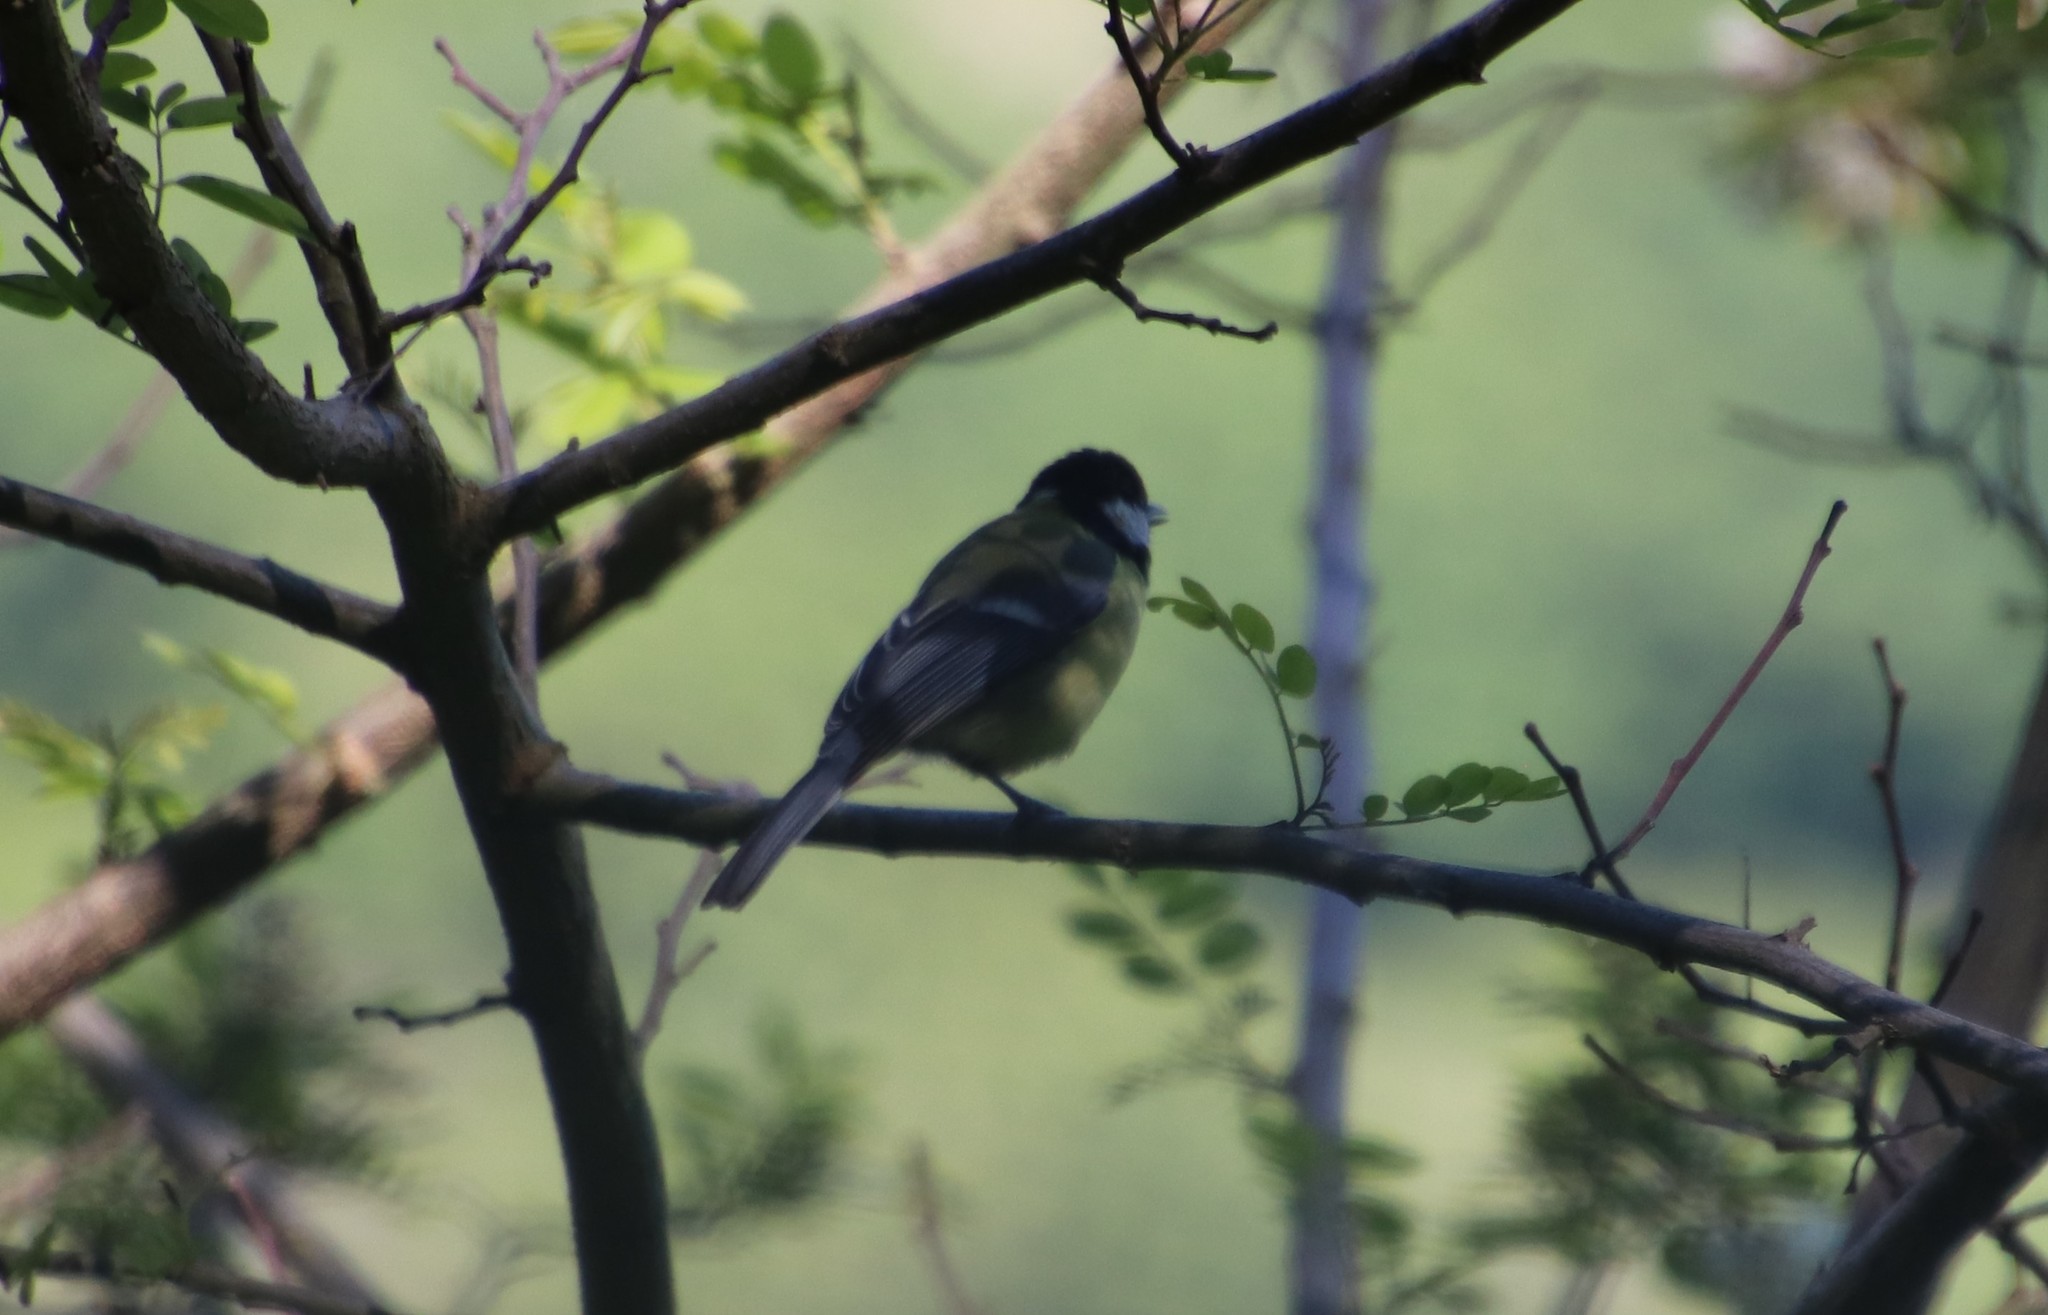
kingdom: Animalia
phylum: Chordata
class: Aves
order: Passeriformes
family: Paridae
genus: Parus
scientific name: Parus major
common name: Great tit
